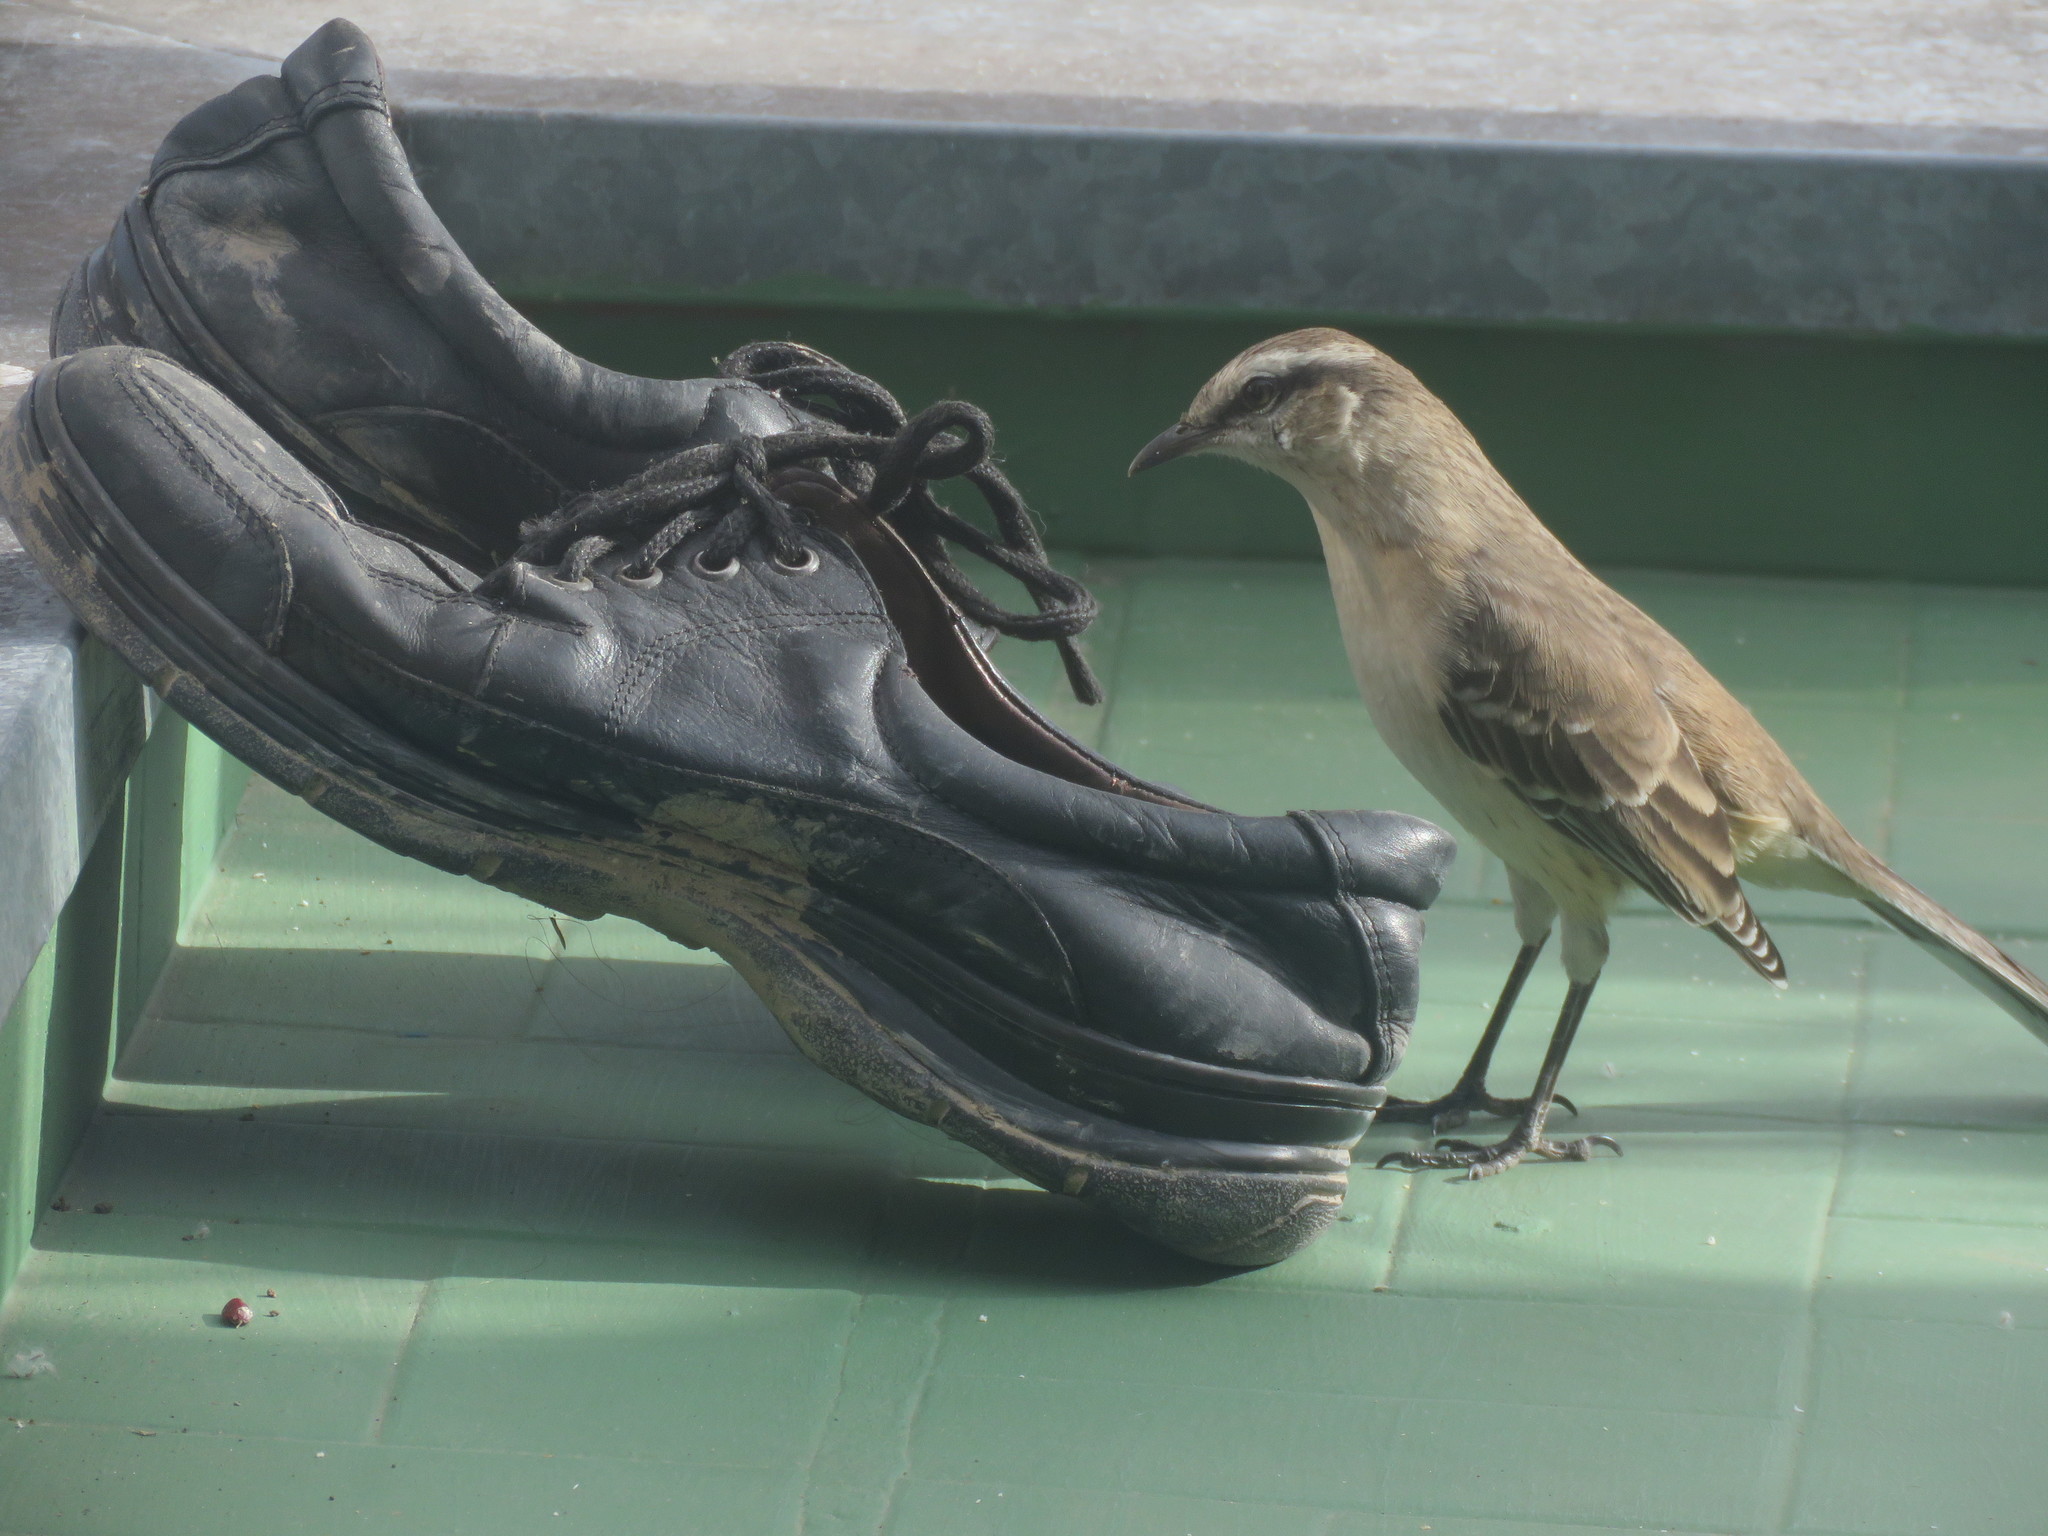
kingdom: Animalia
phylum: Chordata
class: Aves
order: Passeriformes
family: Mimidae
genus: Mimus
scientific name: Mimus saturninus
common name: Chalk-browed mockingbird
